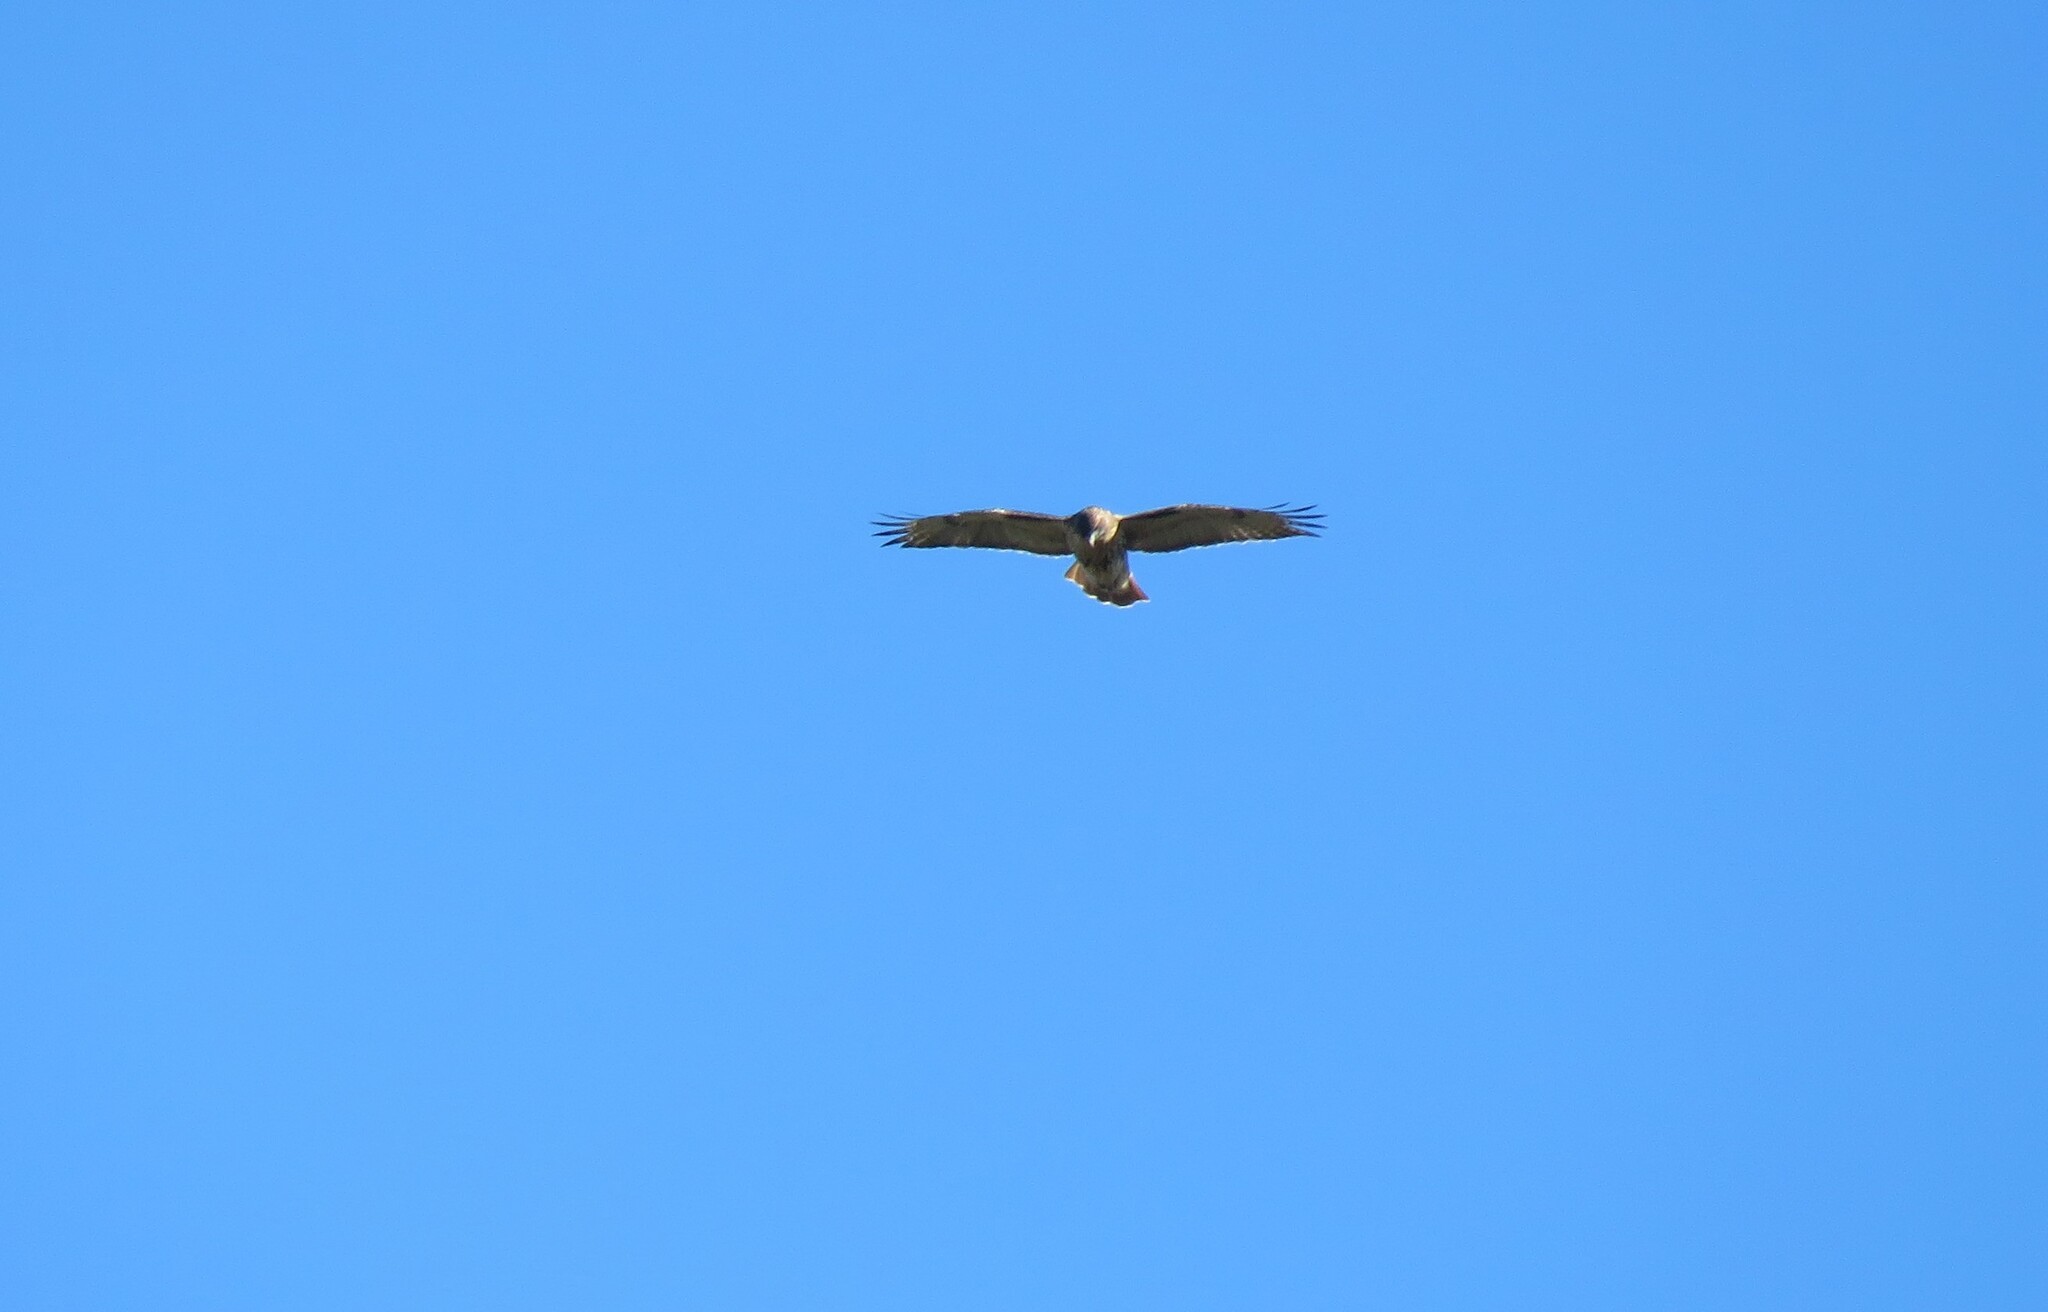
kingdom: Animalia
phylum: Chordata
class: Aves
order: Accipitriformes
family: Accipitridae
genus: Buteo
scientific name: Buteo jamaicensis
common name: Red-tailed hawk
